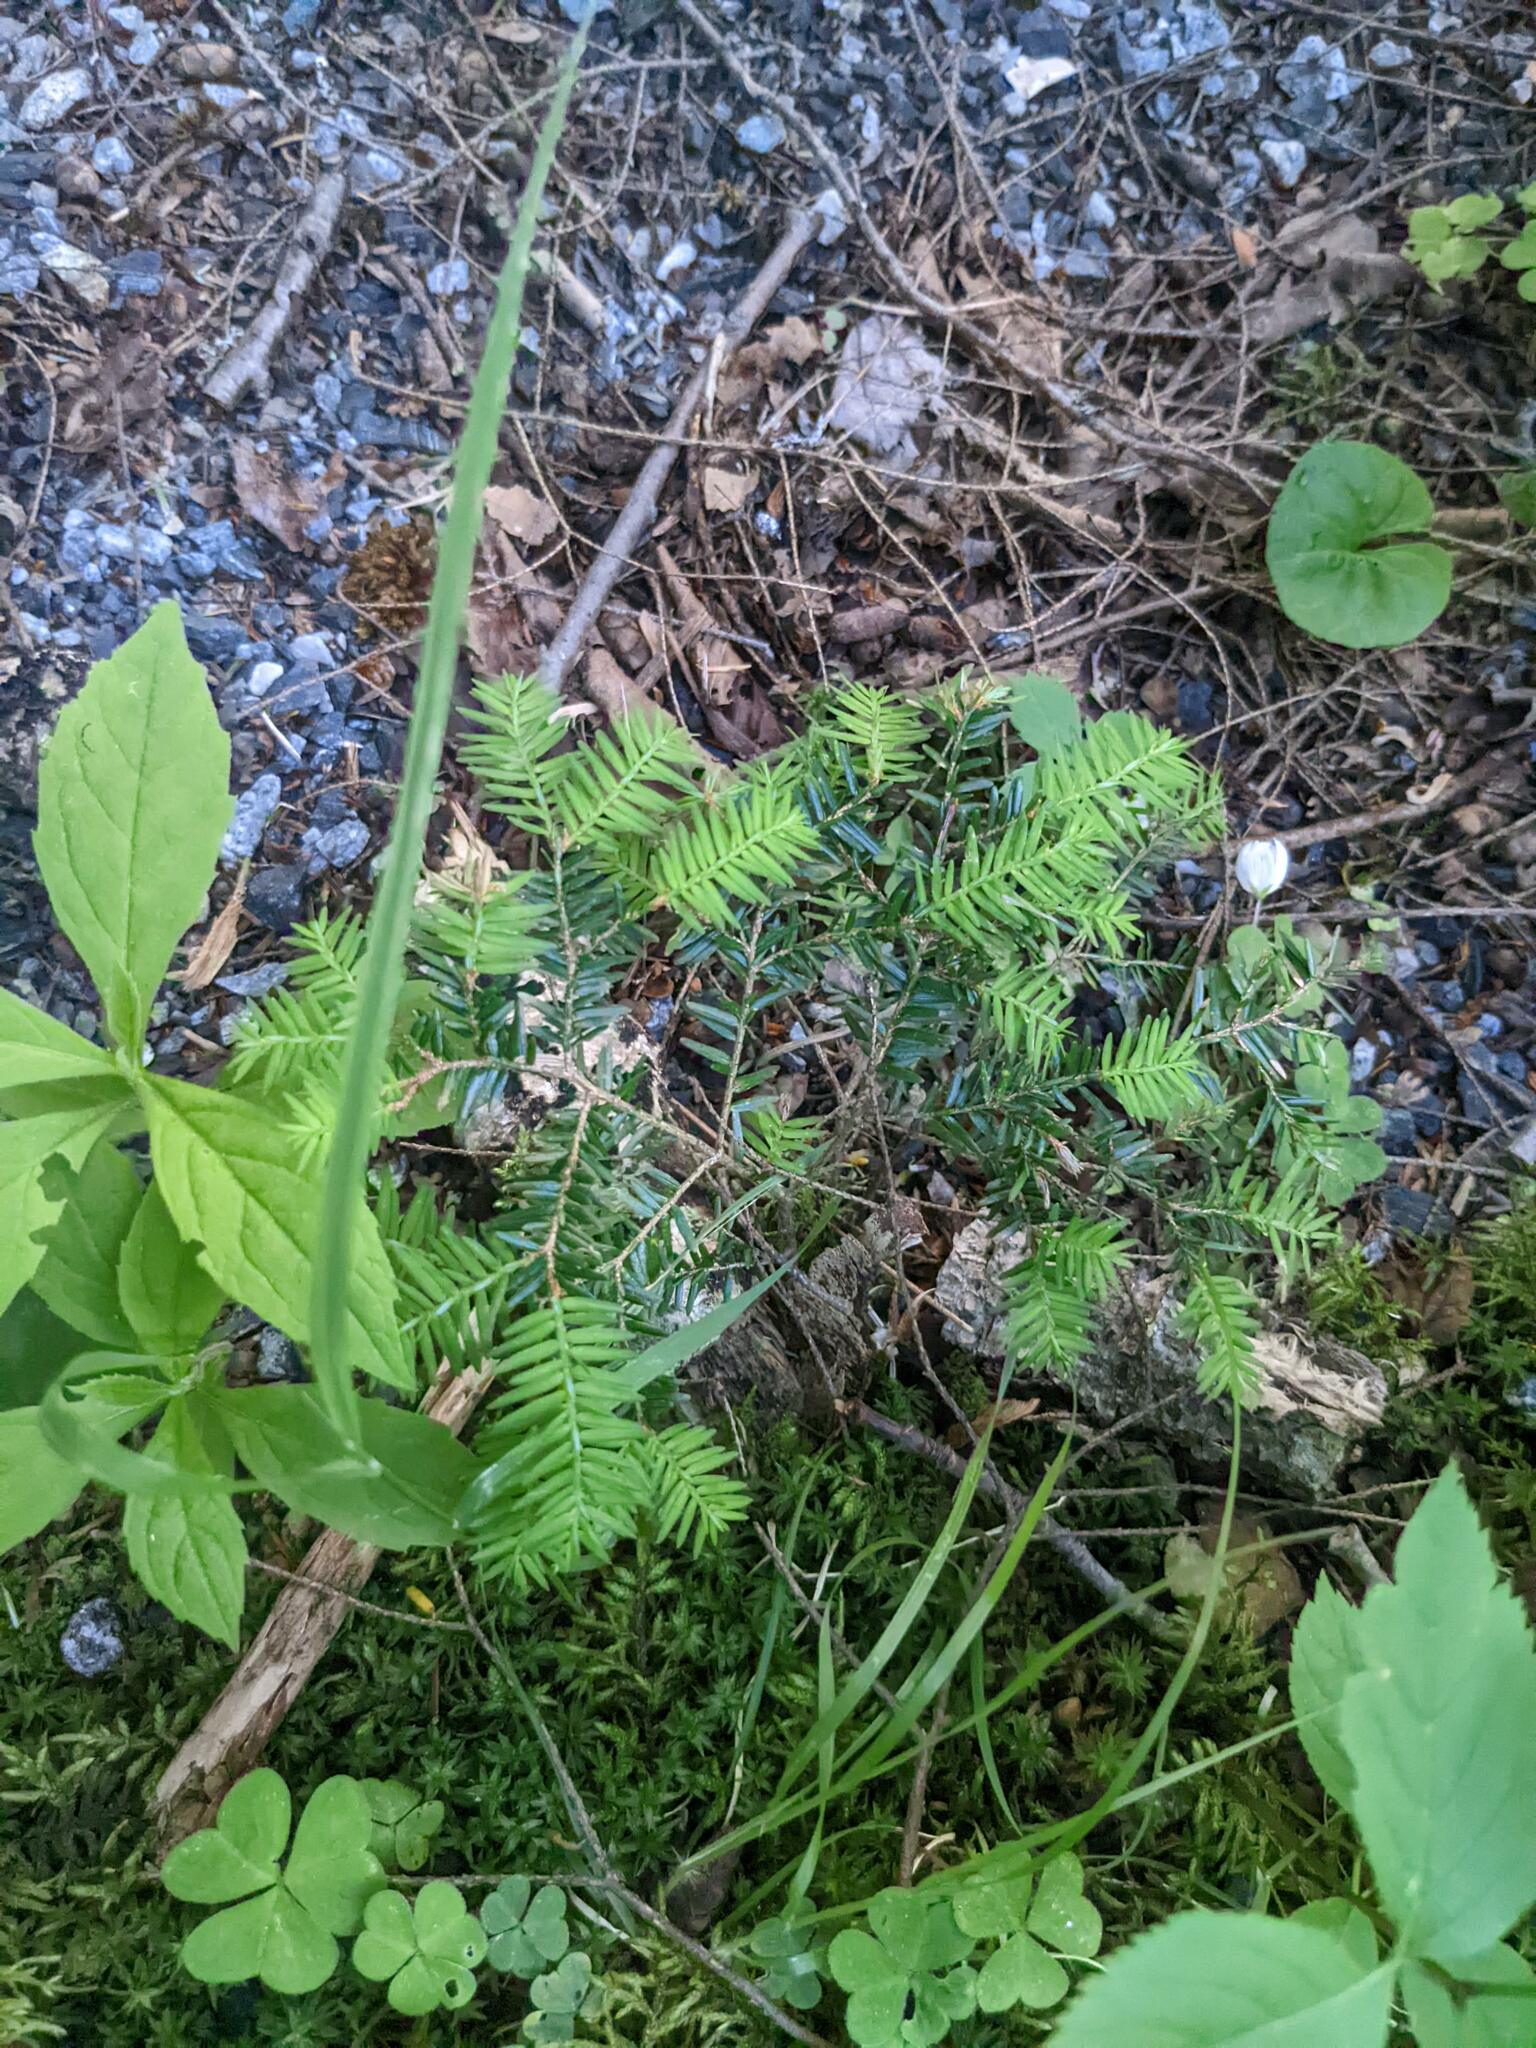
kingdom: Plantae
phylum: Tracheophyta
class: Pinopsida
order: Pinales
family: Pinaceae
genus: Tsuga
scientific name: Tsuga canadensis
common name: Eastern hemlock
